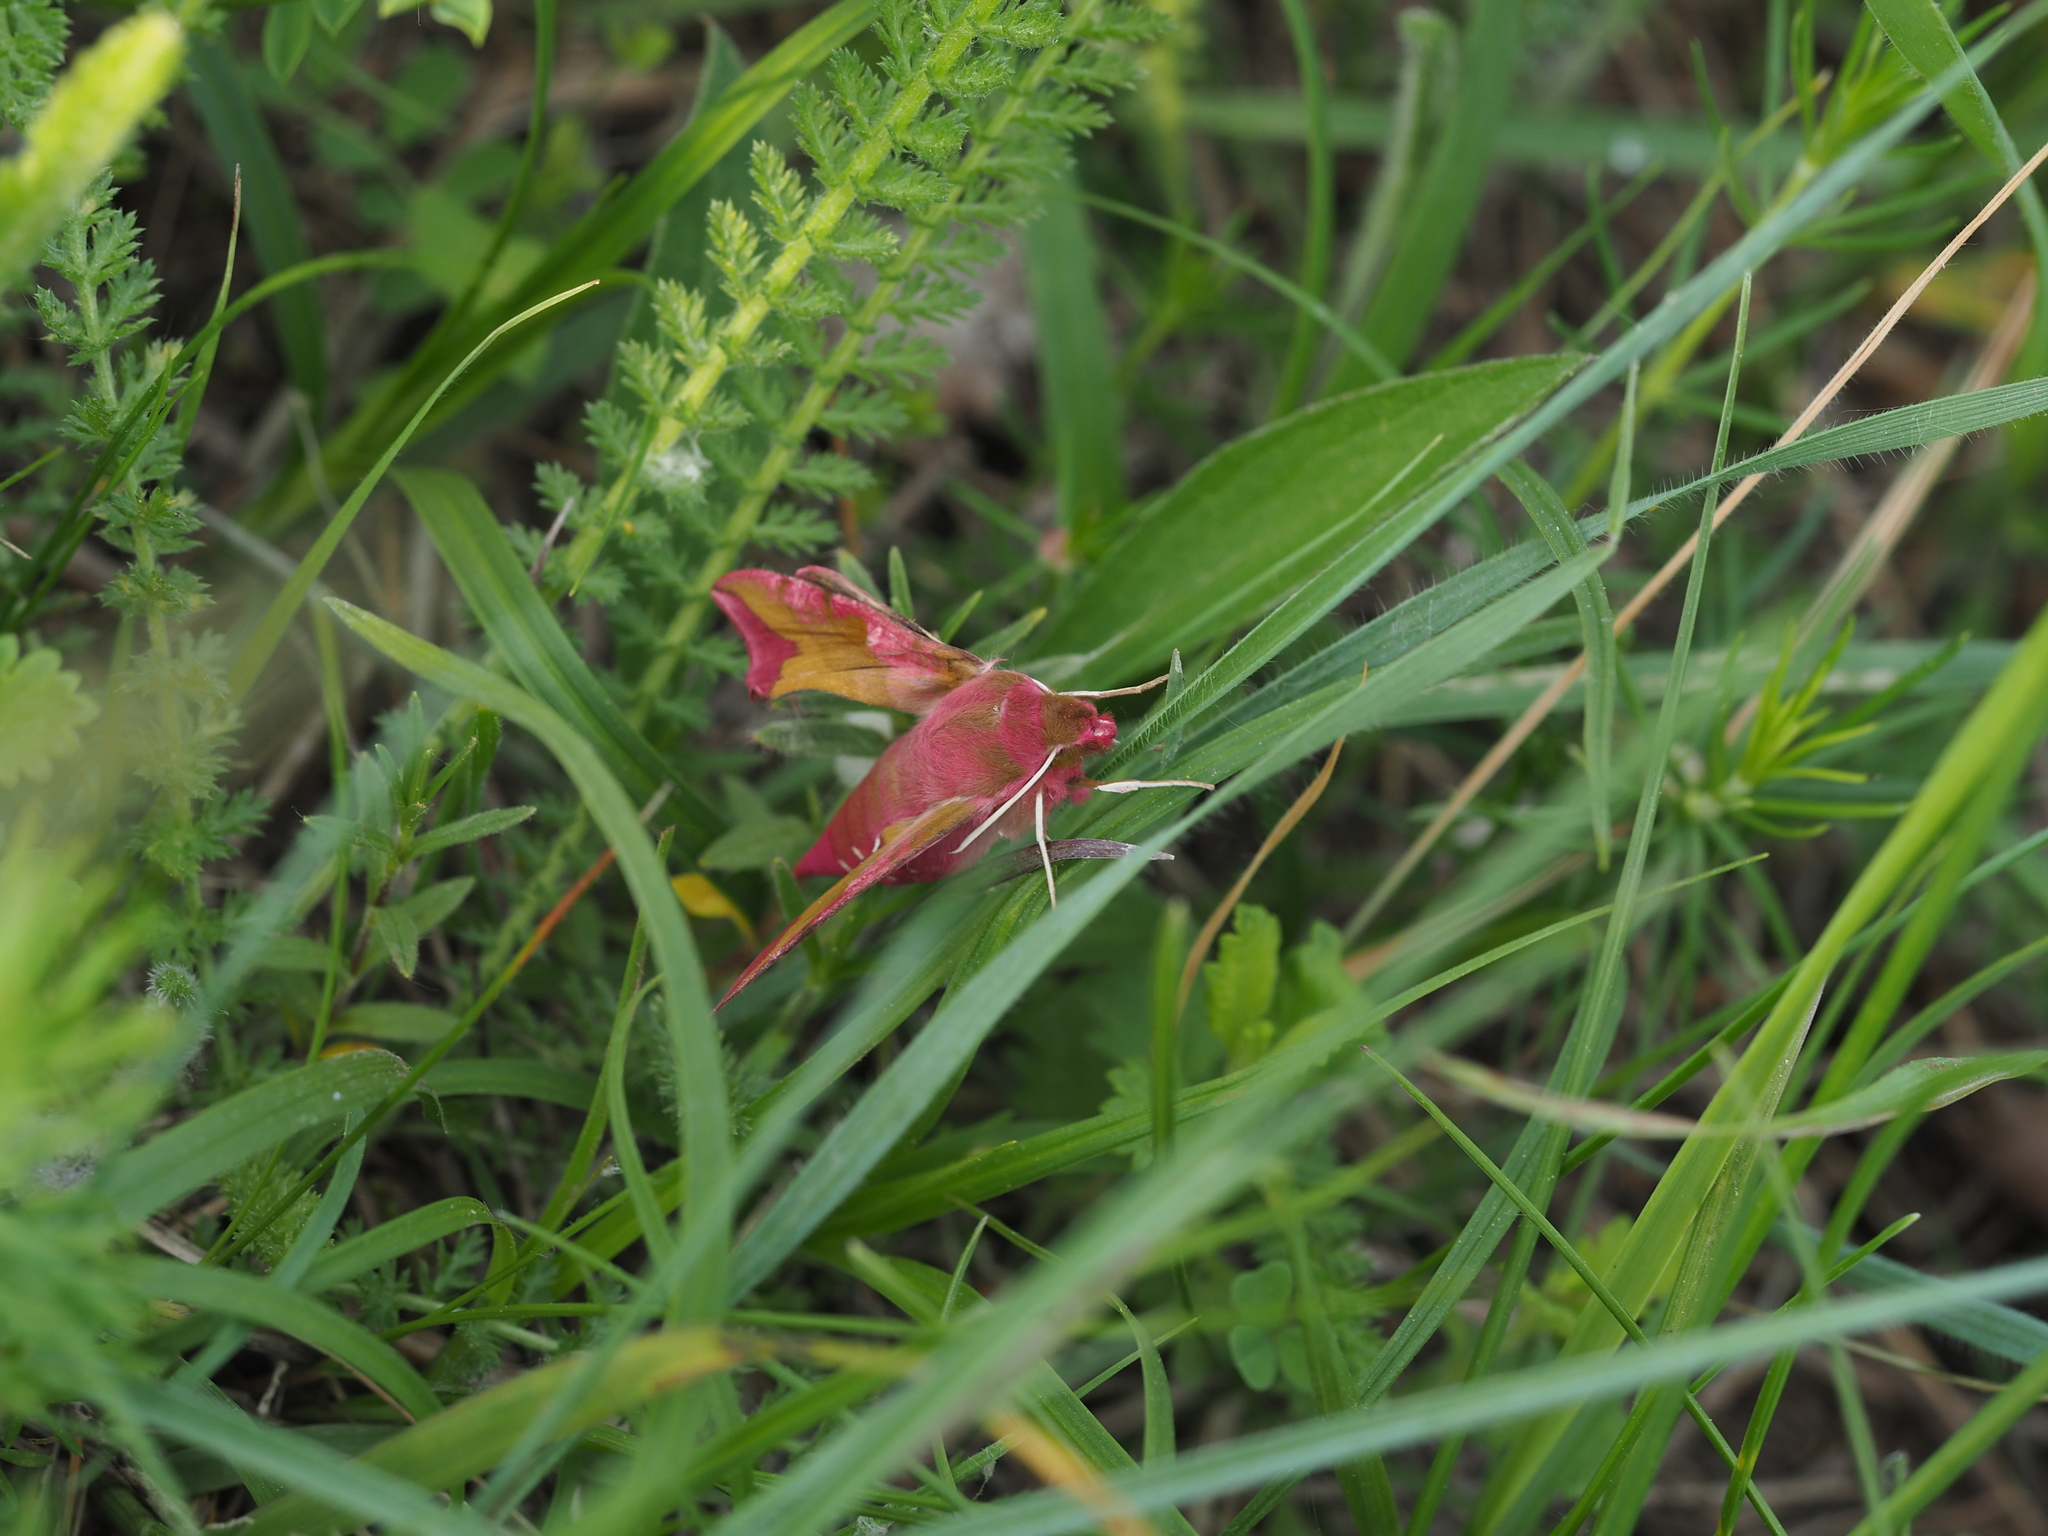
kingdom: Animalia
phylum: Arthropoda
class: Insecta
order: Lepidoptera
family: Sphingidae
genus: Deilephila
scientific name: Deilephila porcellus
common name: Small elephant hawk-moth
